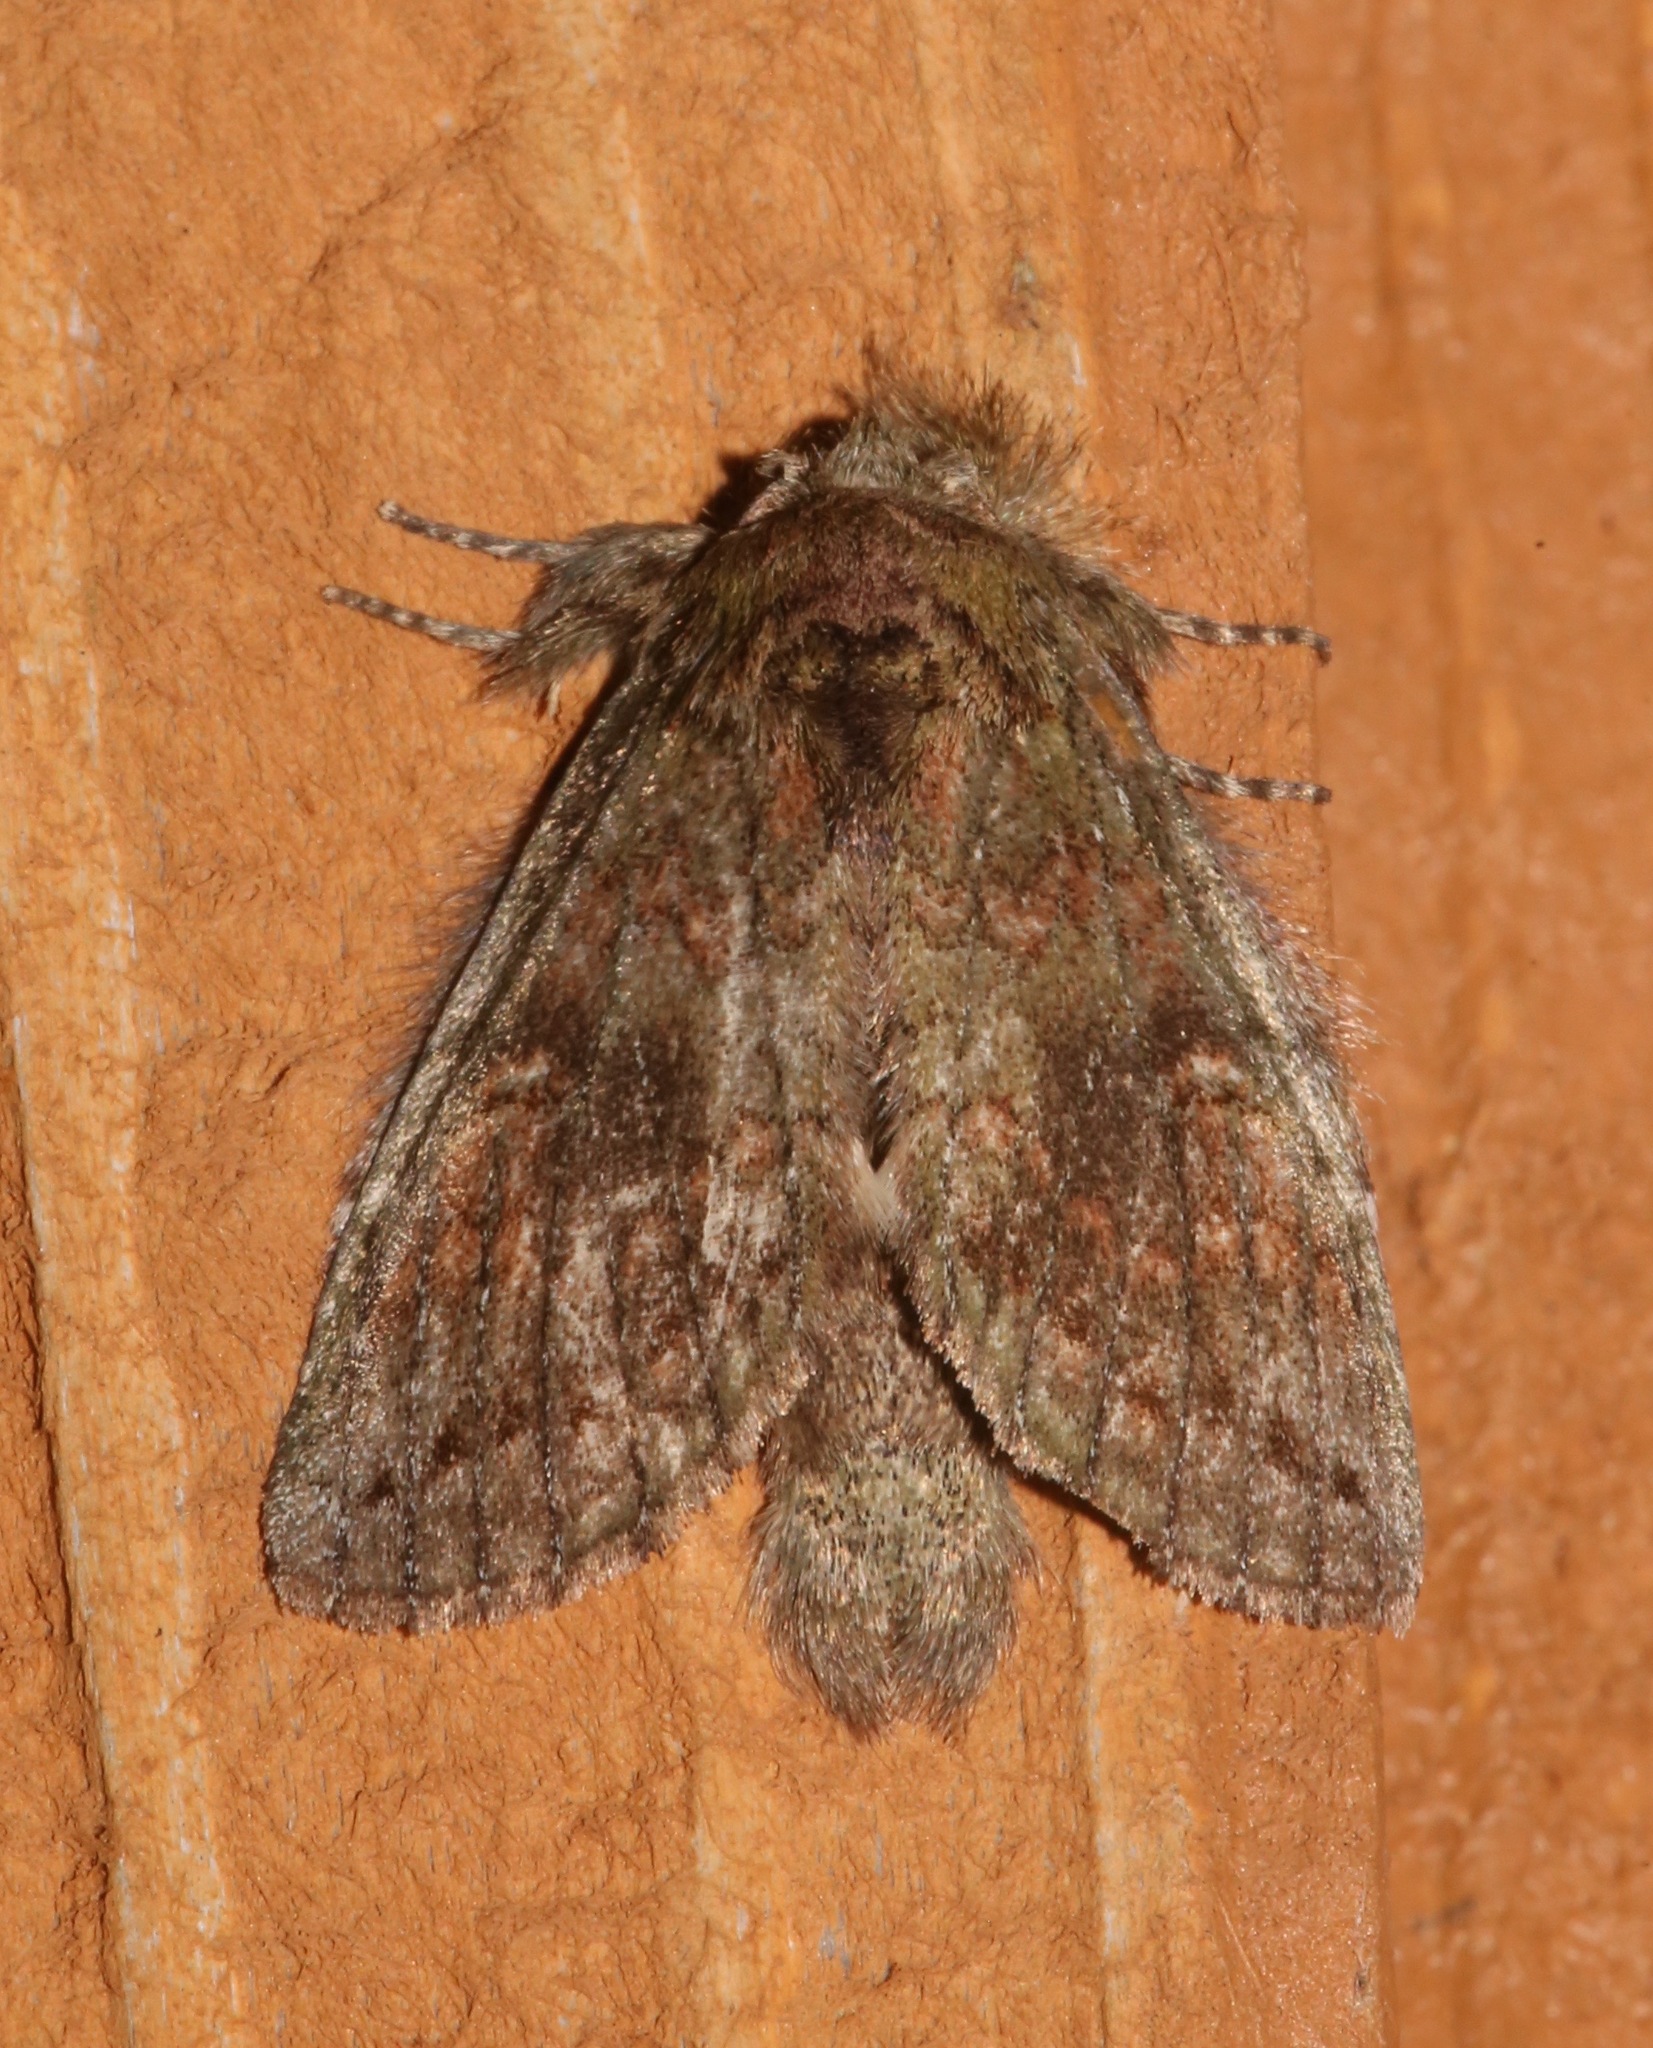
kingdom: Animalia
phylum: Arthropoda
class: Insecta
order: Lepidoptera
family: Notodontidae
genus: Disphragis
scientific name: Disphragis Cecrita biundata
